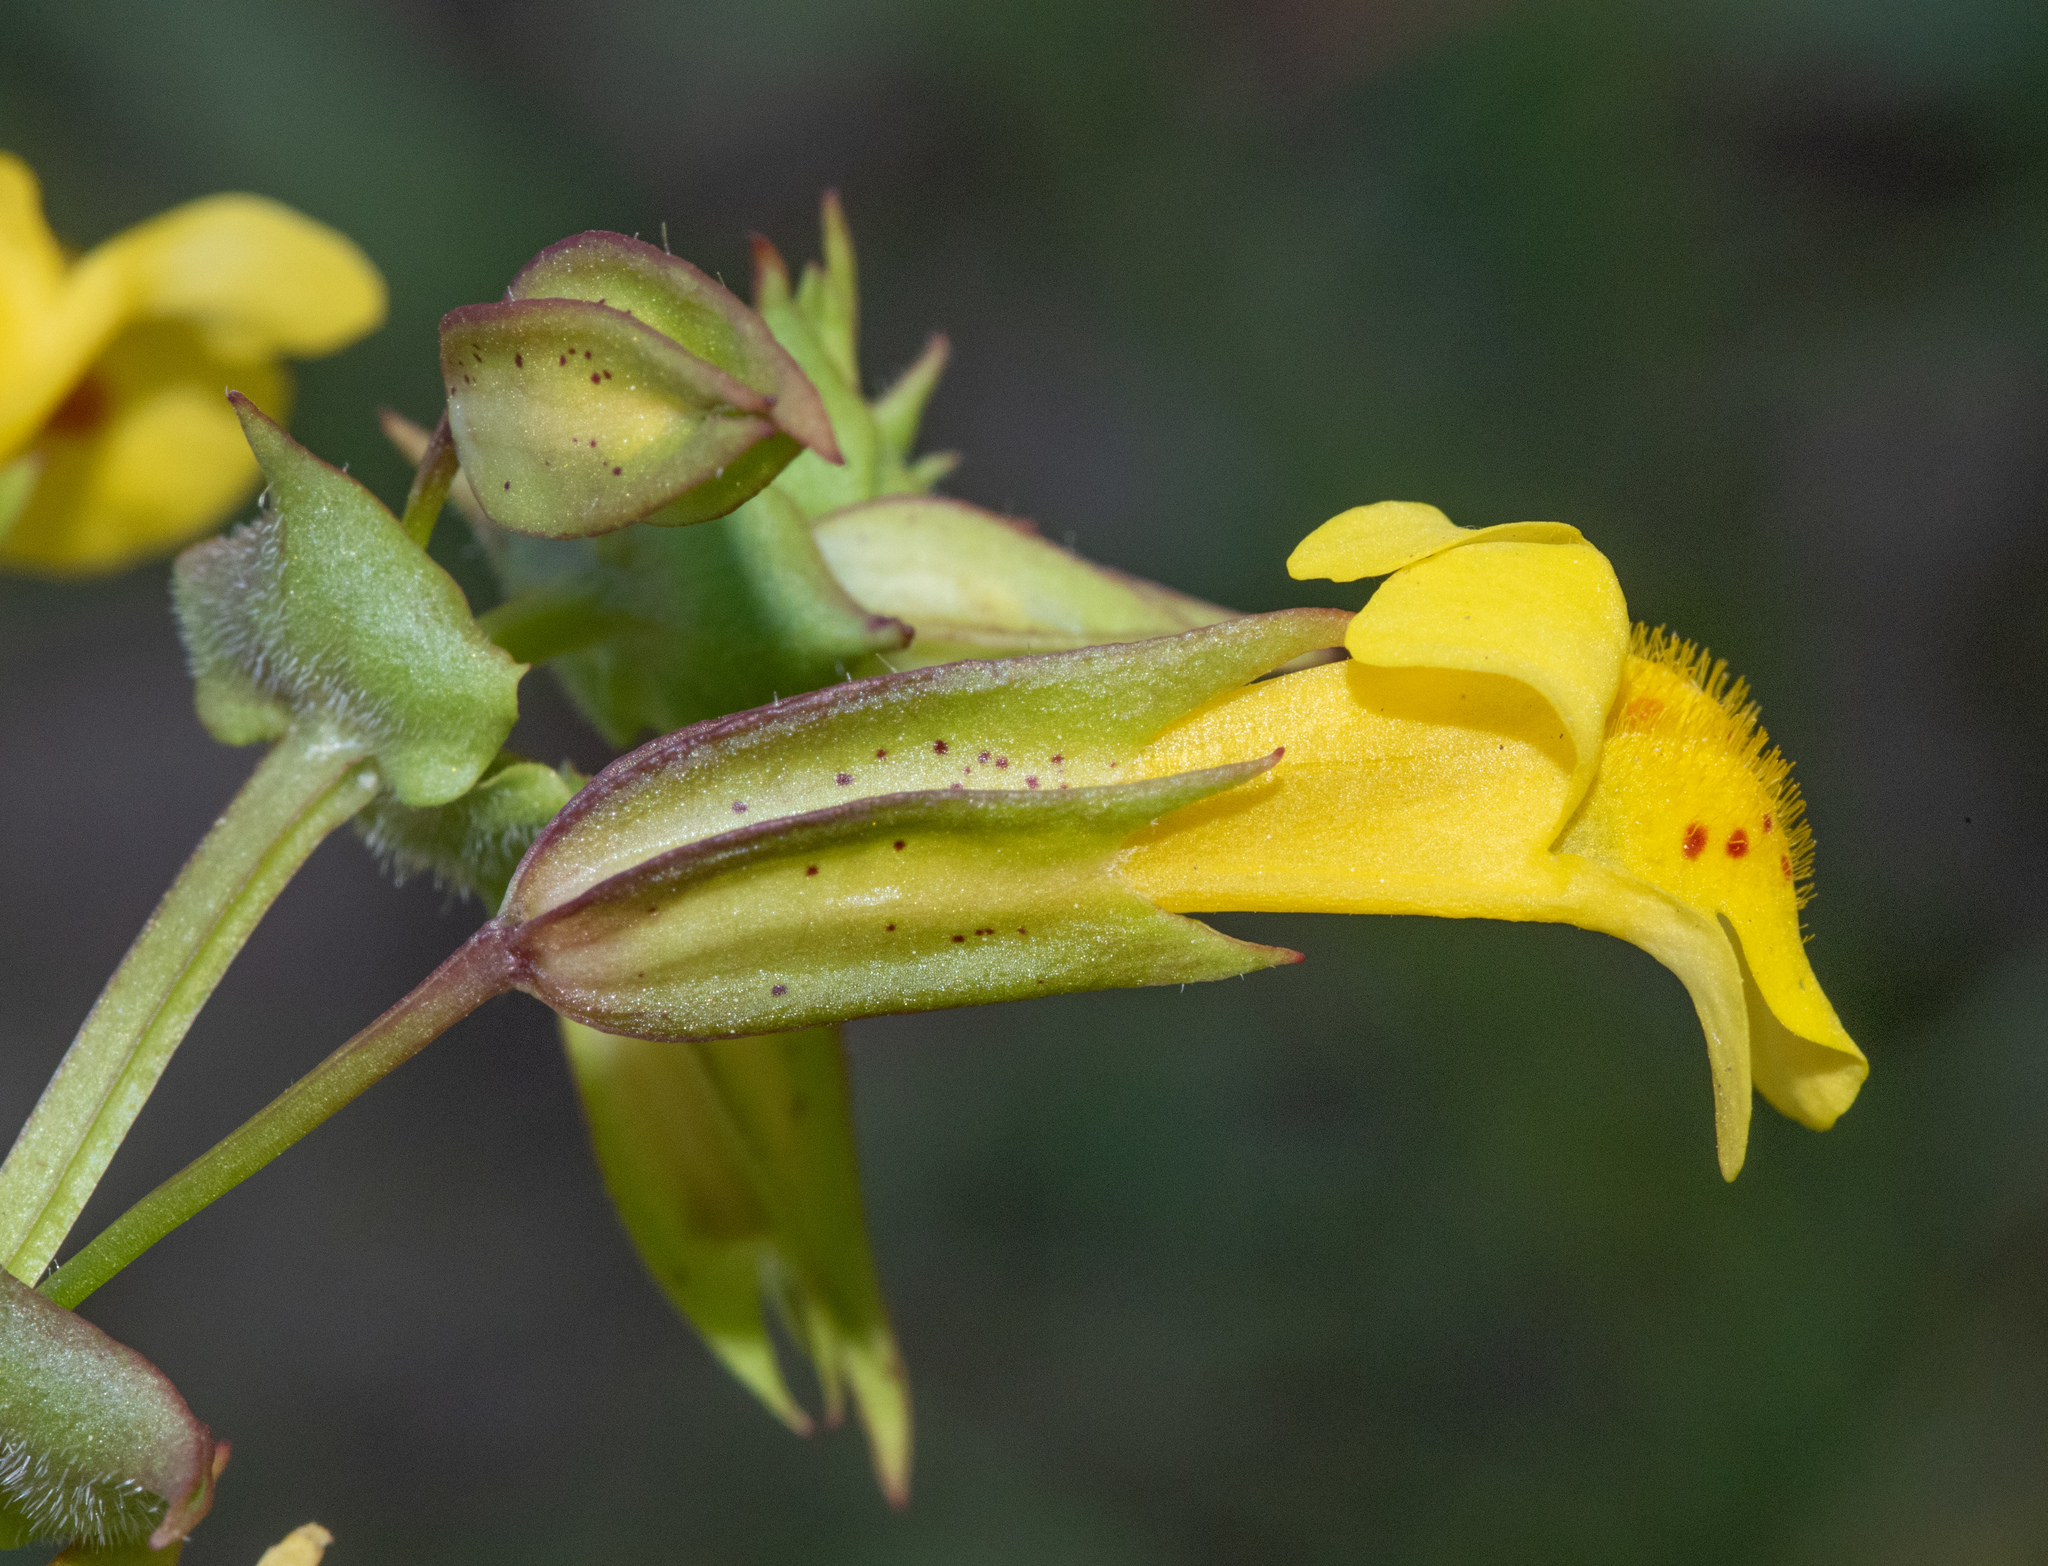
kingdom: Plantae
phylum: Tracheophyta
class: Magnoliopsida
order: Lamiales
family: Phrymaceae
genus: Erythranthe
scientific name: Erythranthe nasuta
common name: Sooke monkeyflower
